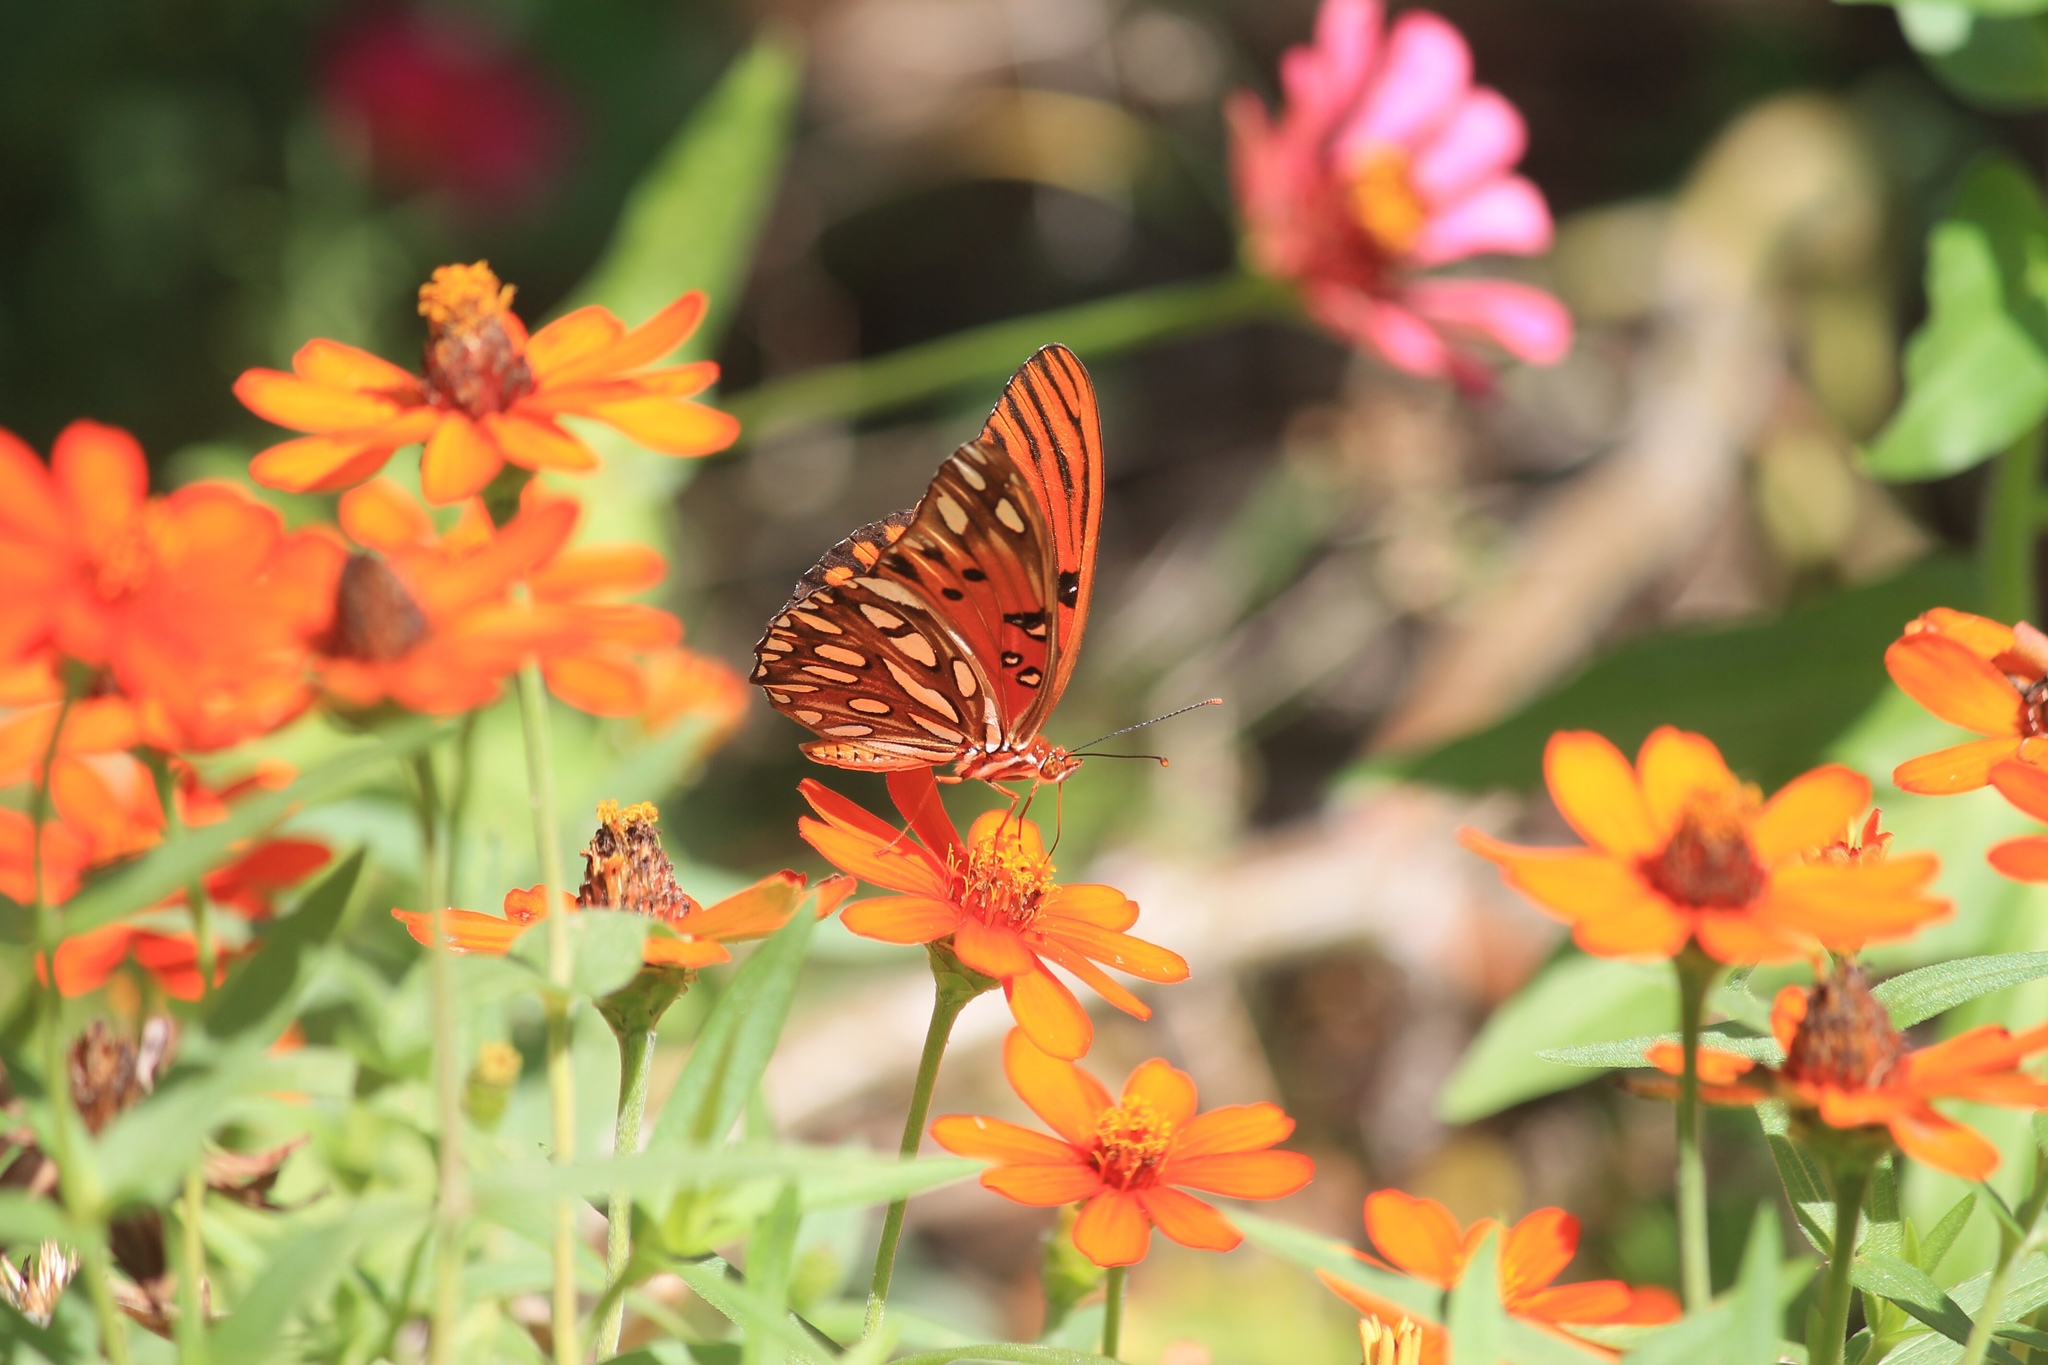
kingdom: Animalia
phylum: Arthropoda
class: Insecta
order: Lepidoptera
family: Nymphalidae
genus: Dione
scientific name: Dione vanillae
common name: Gulf fritillary
